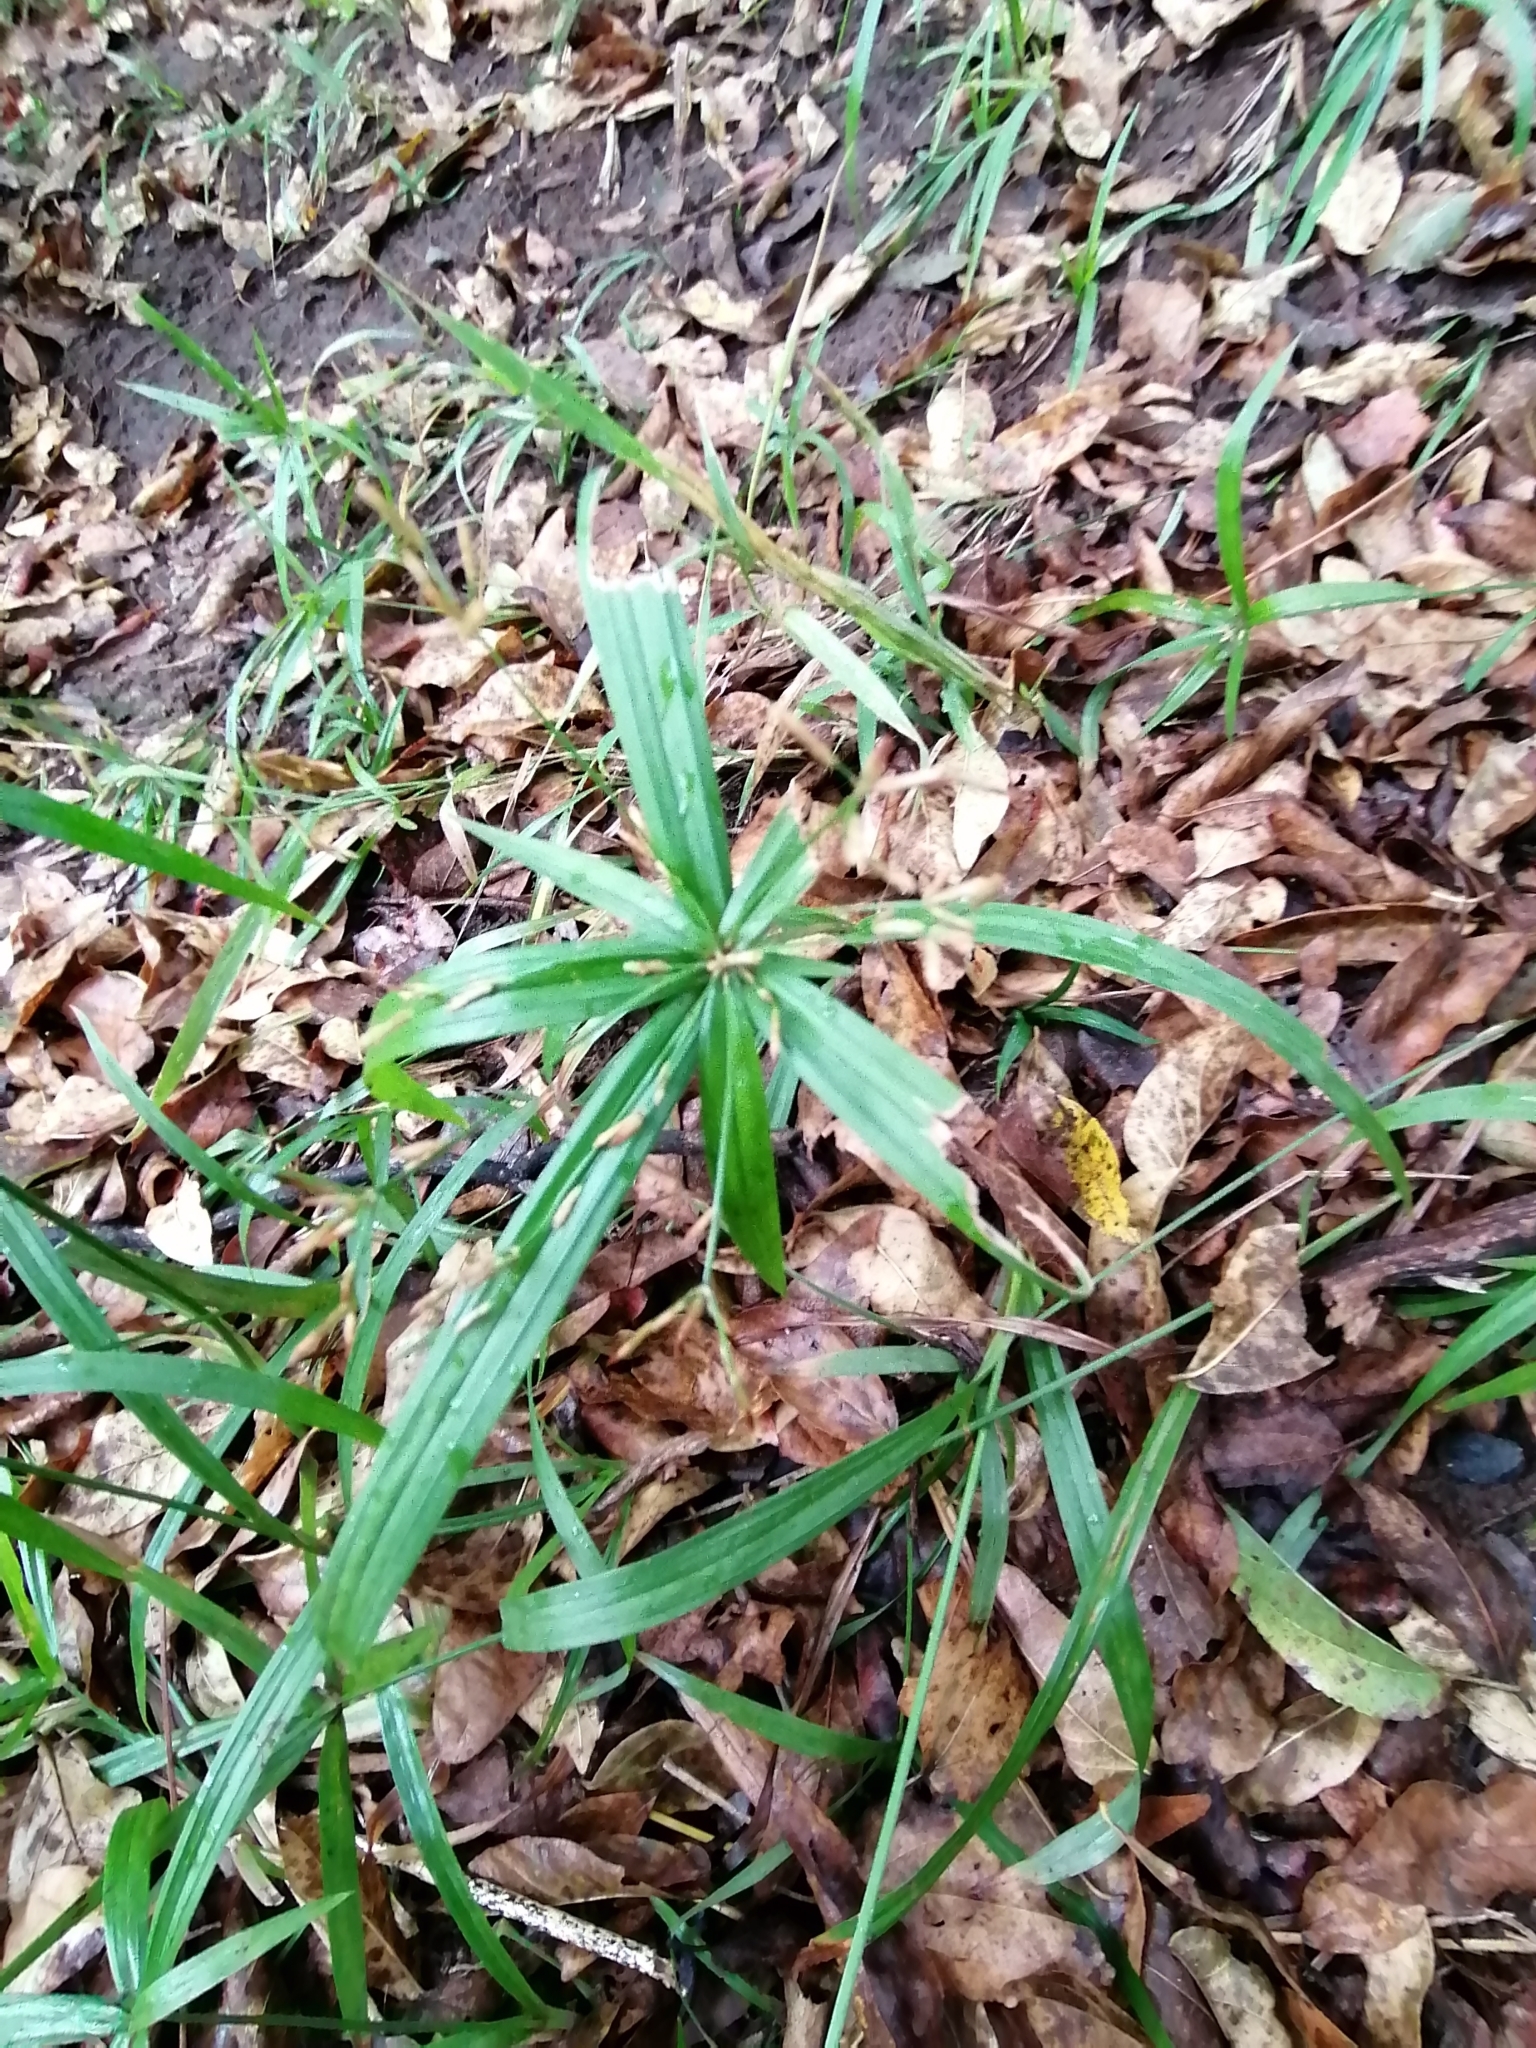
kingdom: Plantae
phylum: Tracheophyta
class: Liliopsida
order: Poales
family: Cyperaceae
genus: Cyperus
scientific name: Cyperus albostriatus
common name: Dwarf umbrella-grass
